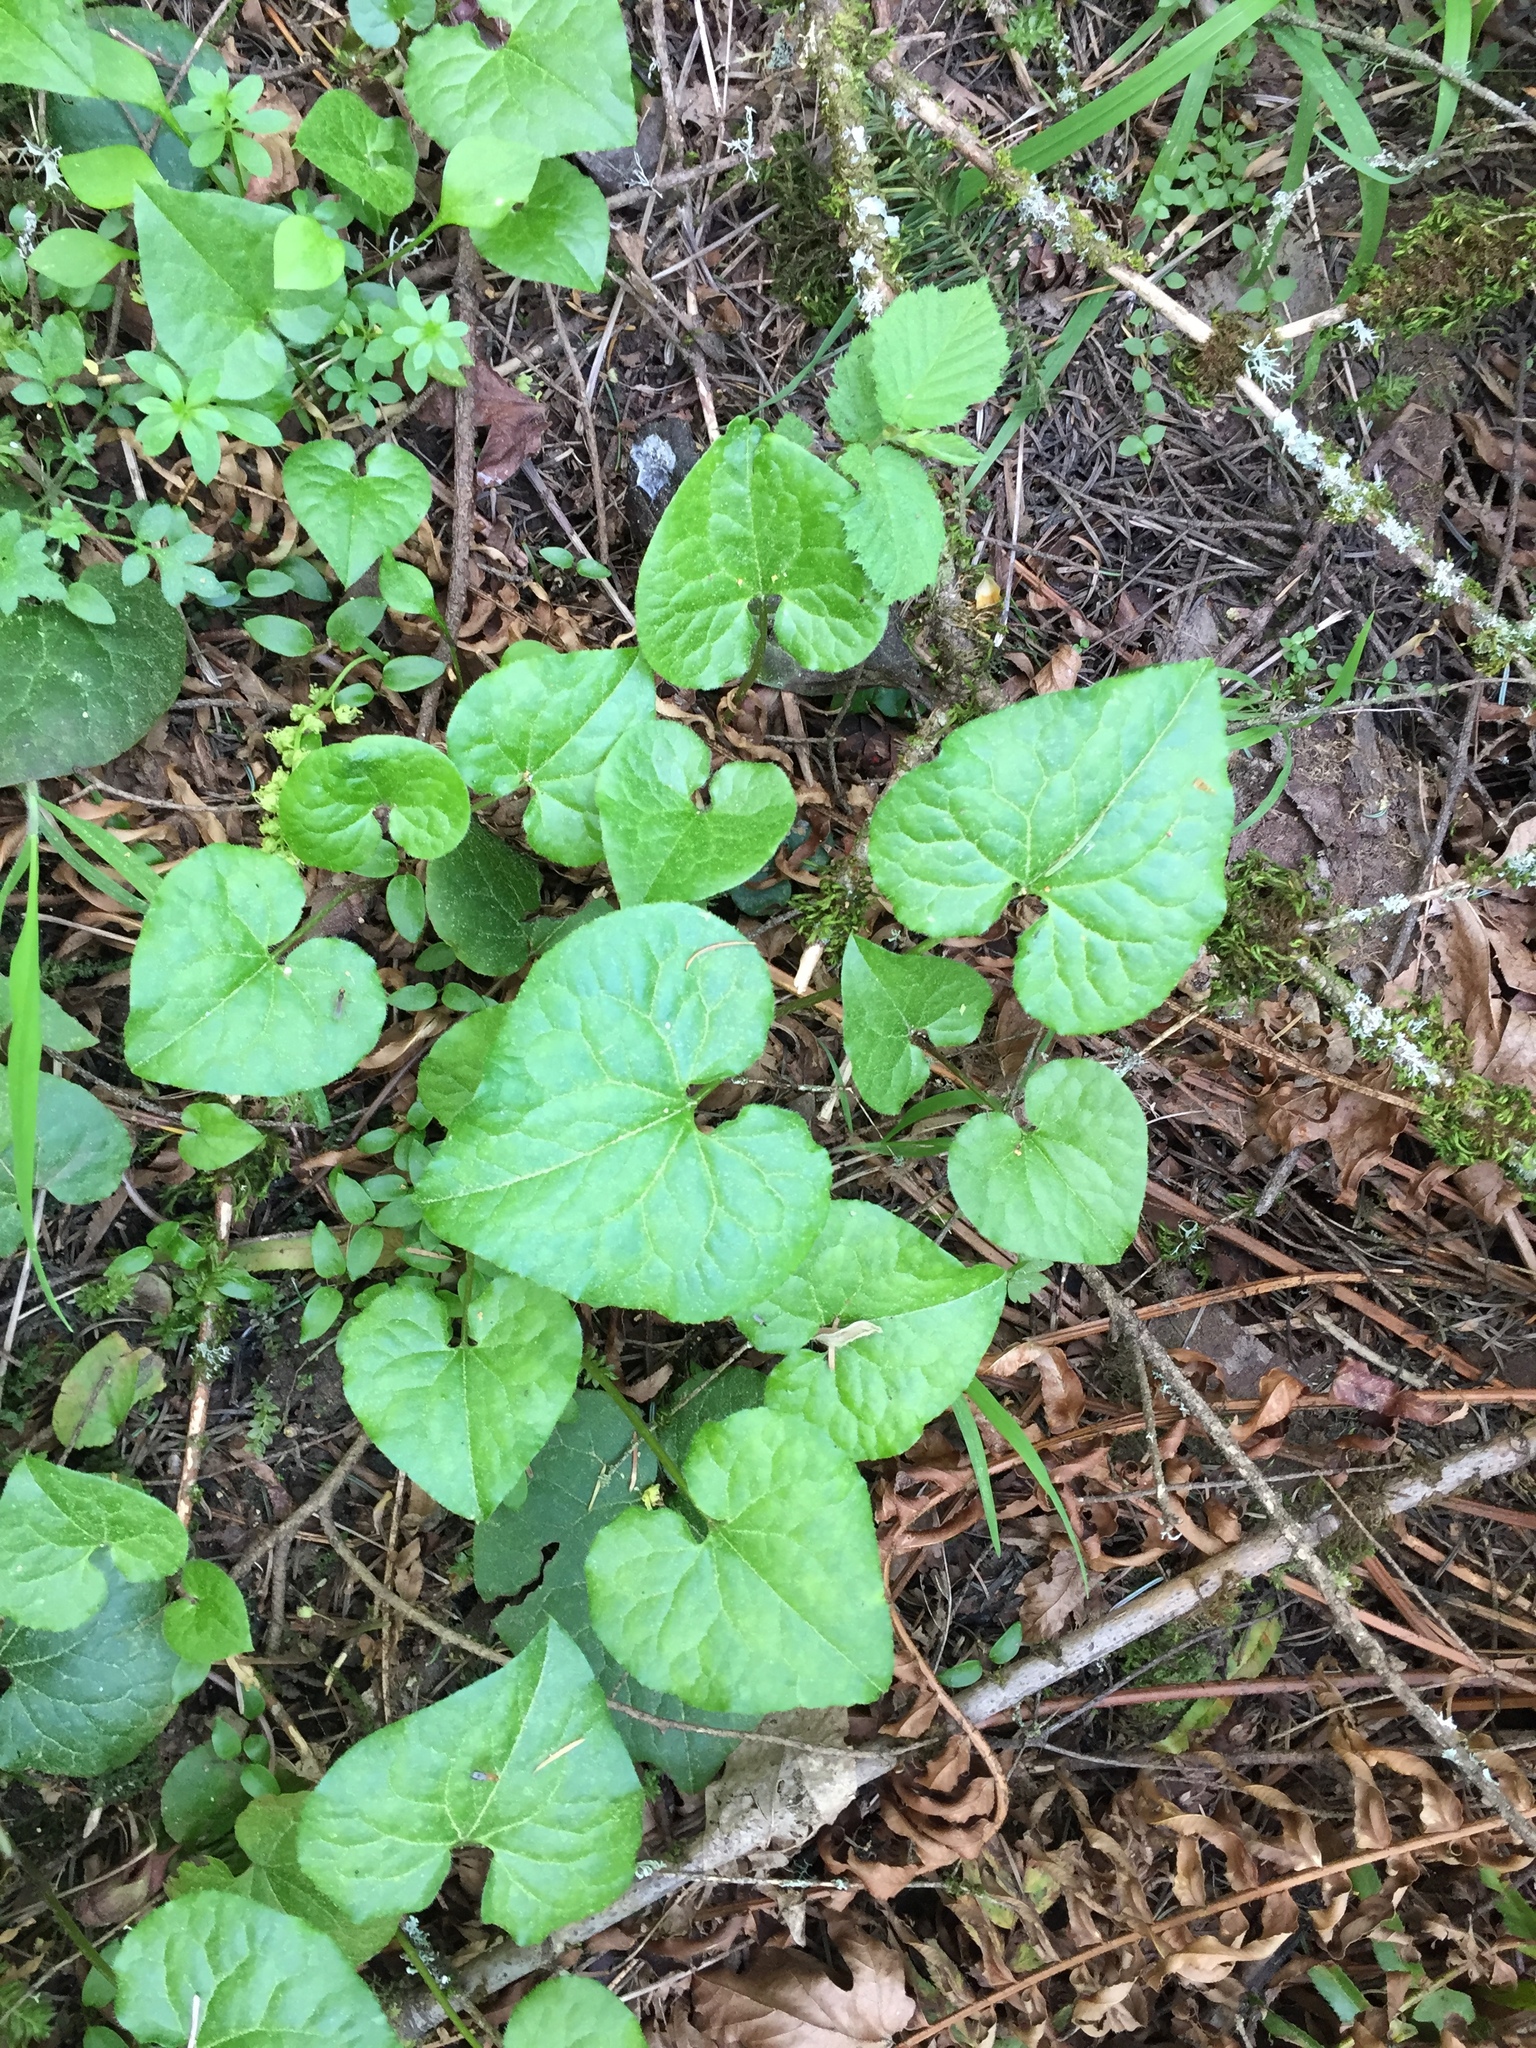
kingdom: Plantae
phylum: Tracheophyta
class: Magnoliopsida
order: Piperales
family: Aristolochiaceae
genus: Asarum
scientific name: Asarum caudatum
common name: Wild ginger
